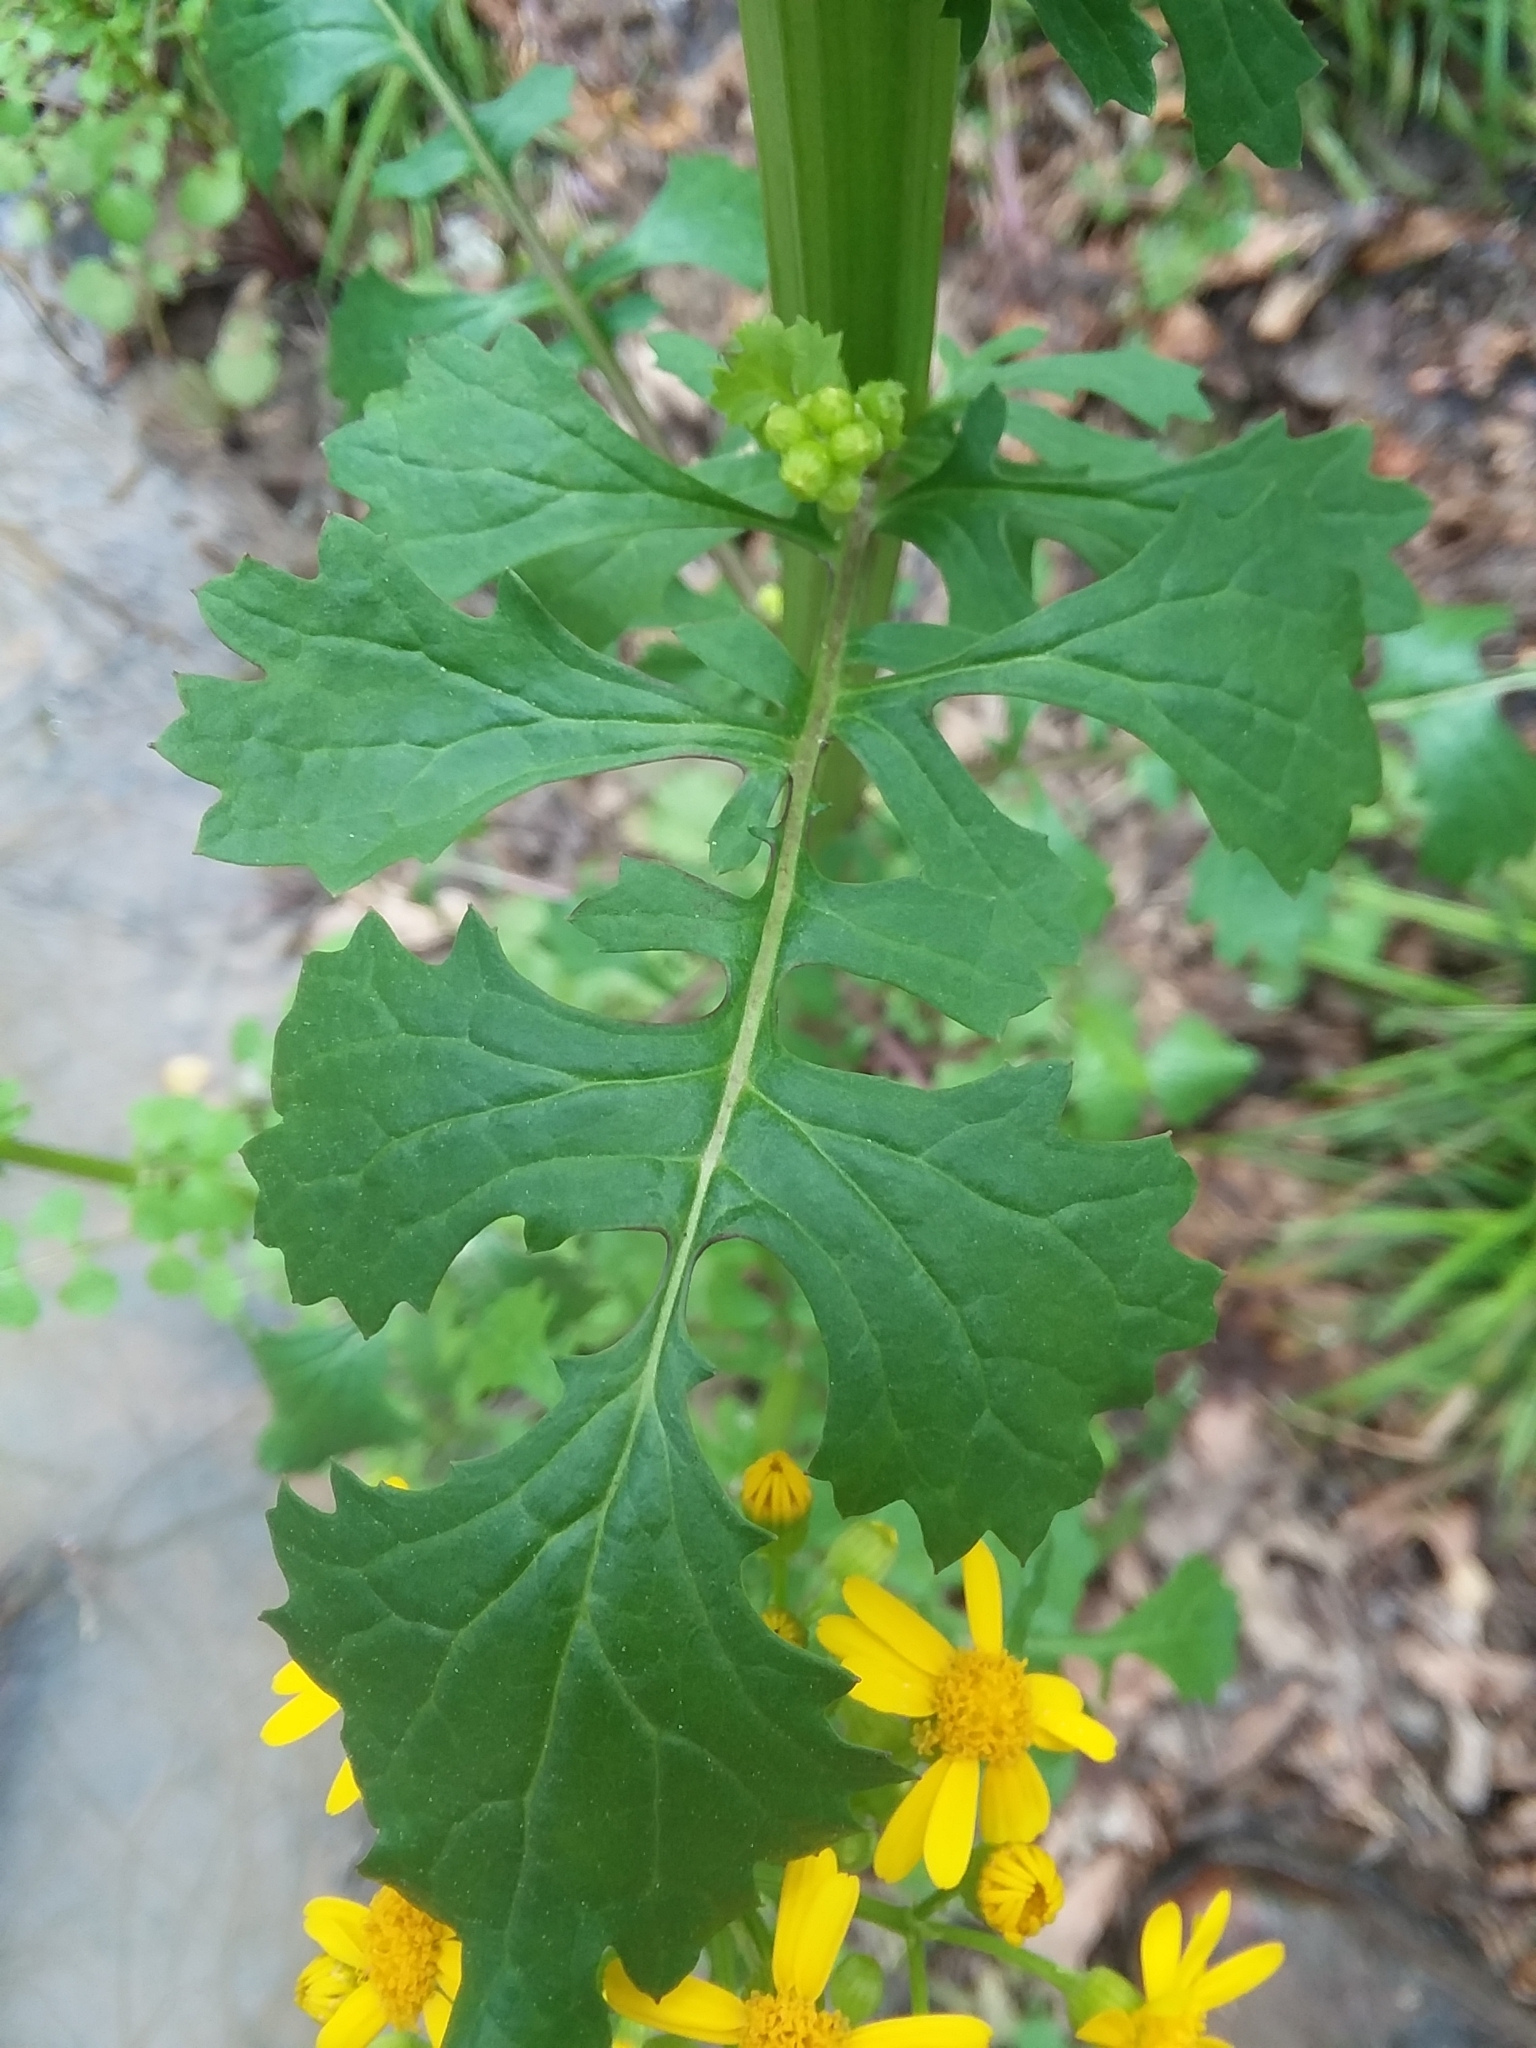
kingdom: Plantae
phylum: Tracheophyta
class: Magnoliopsida
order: Asterales
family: Asteraceae
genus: Packera
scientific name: Packera glabella
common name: Butterweed
